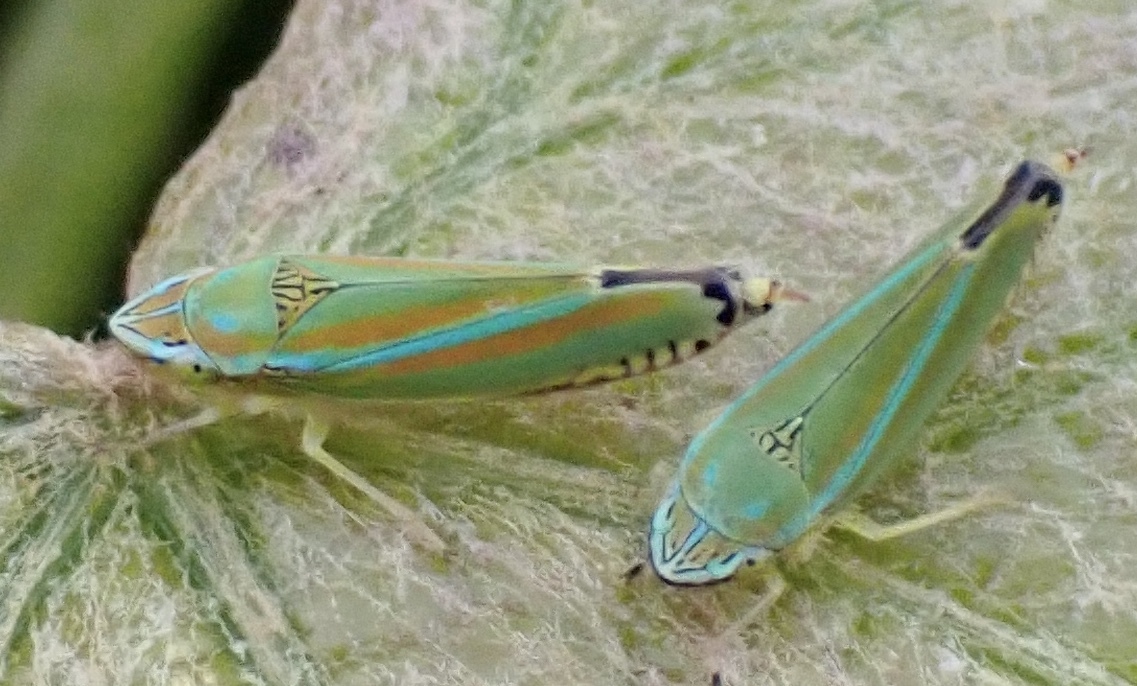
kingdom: Animalia
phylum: Arthropoda
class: Insecta
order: Hemiptera
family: Cicadellidae
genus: Graphocephala
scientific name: Graphocephala versuta
